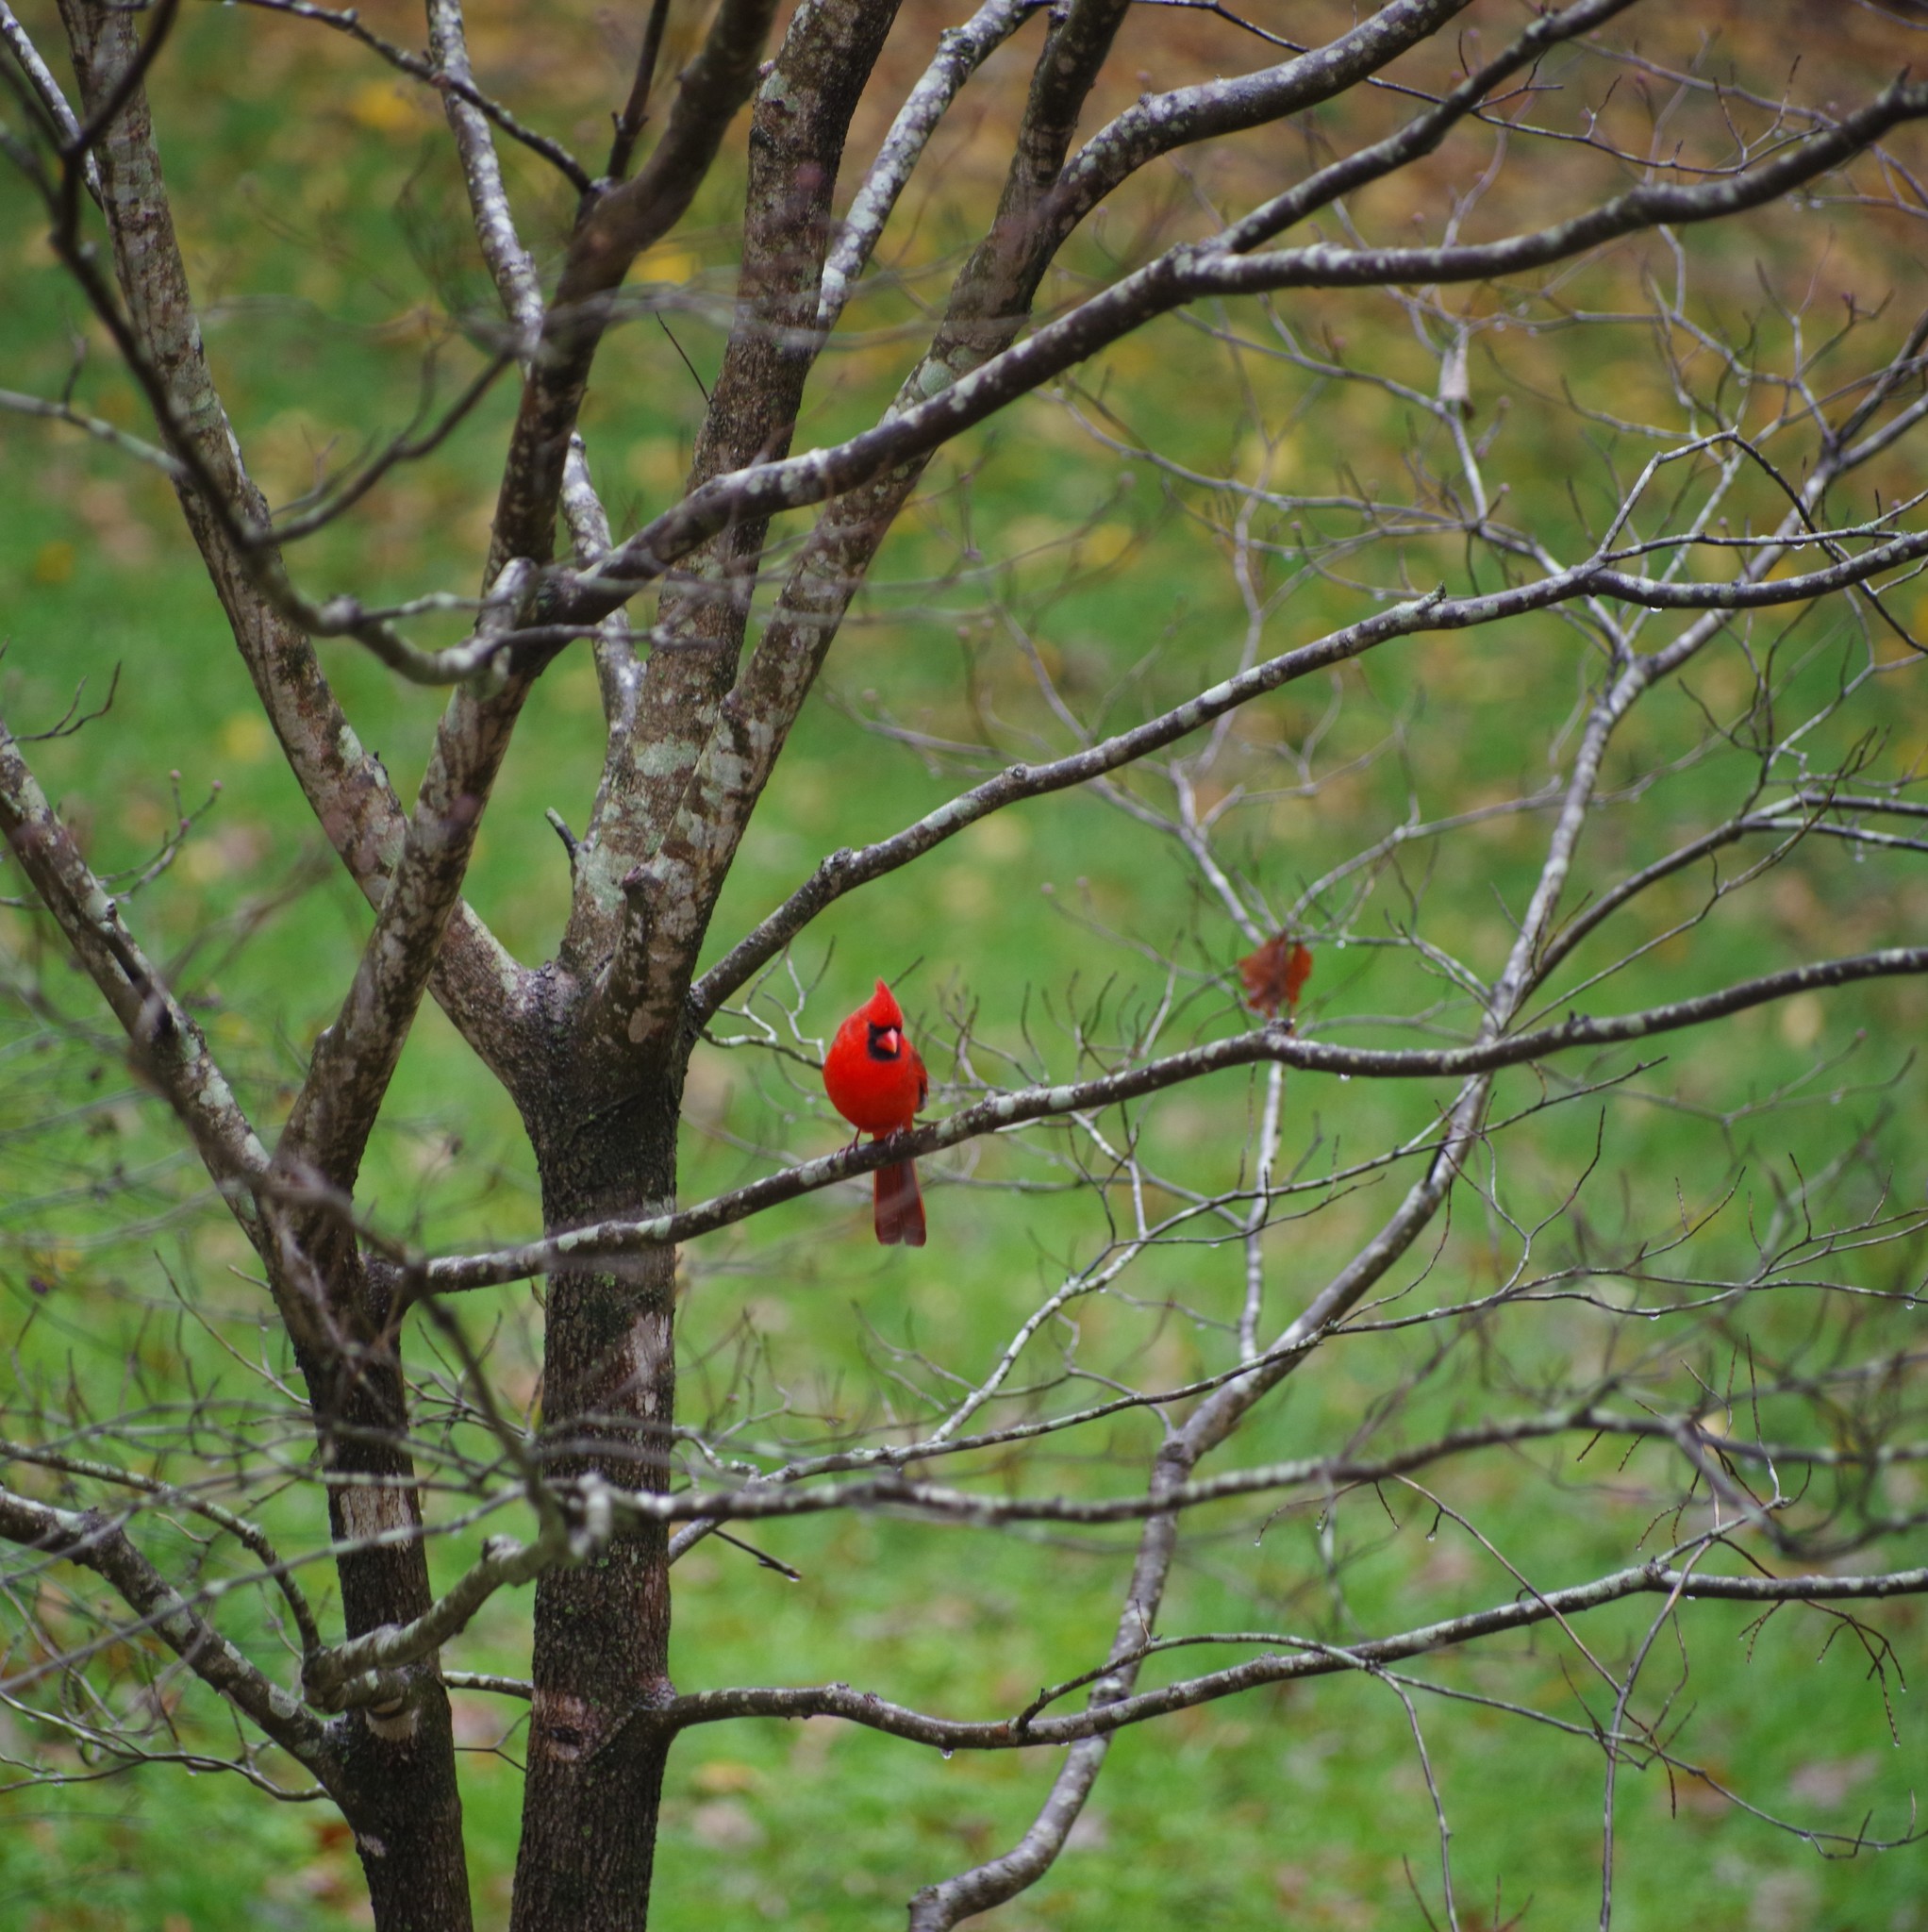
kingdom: Animalia
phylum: Chordata
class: Aves
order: Passeriformes
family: Cardinalidae
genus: Cardinalis
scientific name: Cardinalis cardinalis
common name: Northern cardinal
